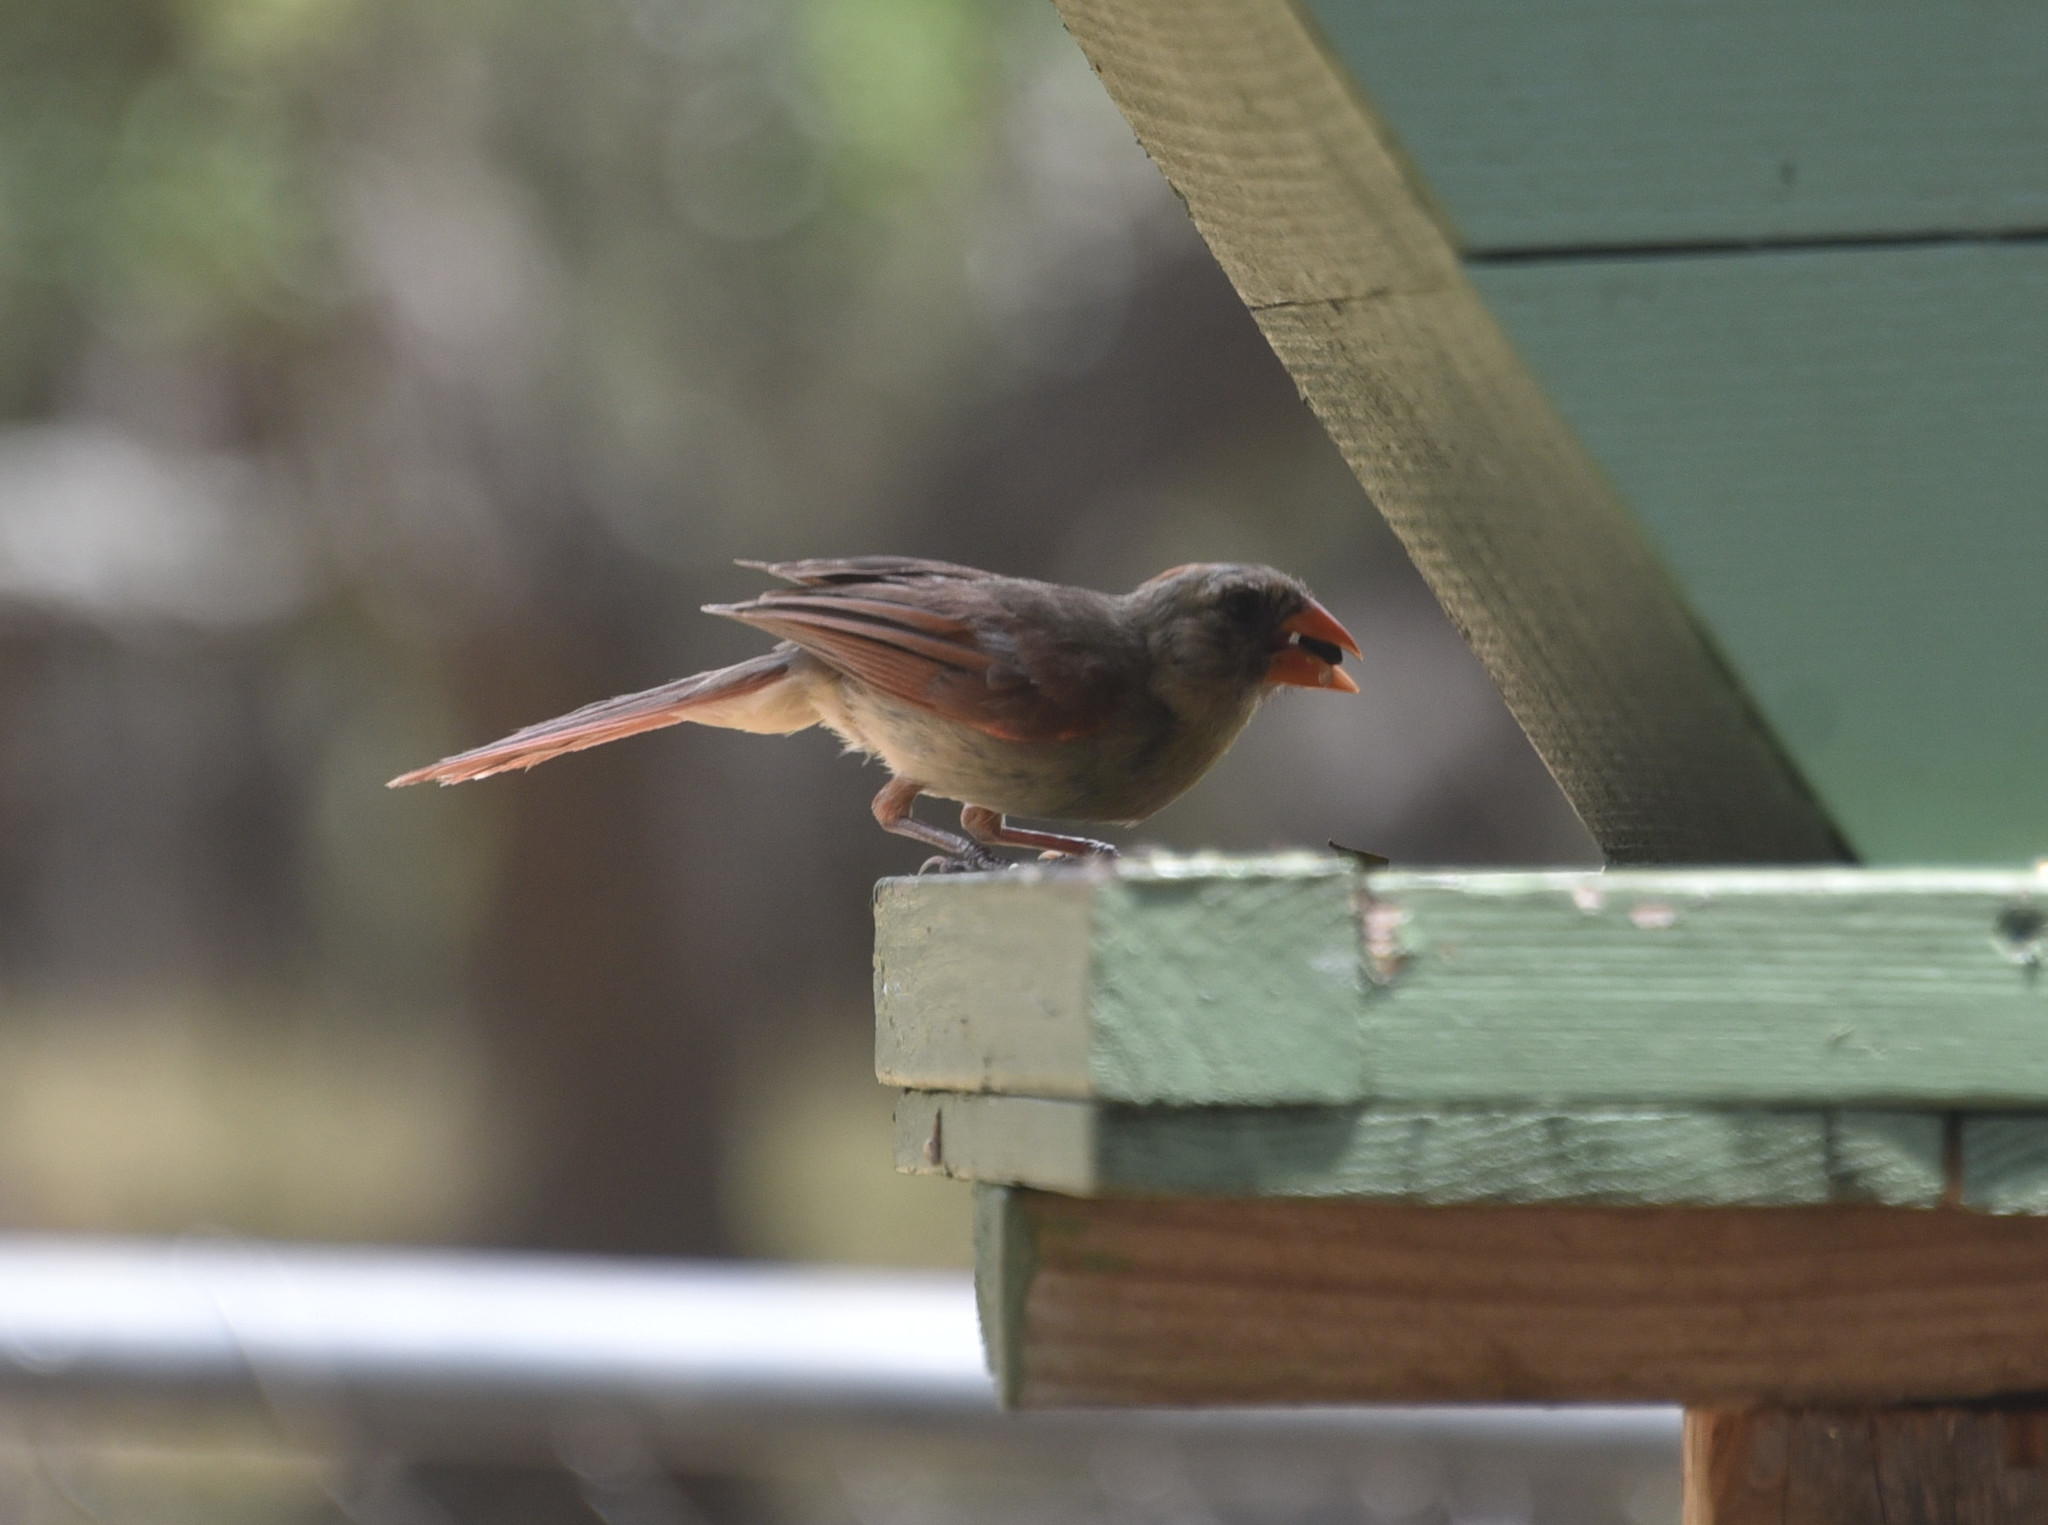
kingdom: Animalia
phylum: Chordata
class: Aves
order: Passeriformes
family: Cardinalidae
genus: Cardinalis
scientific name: Cardinalis cardinalis
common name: Northern cardinal
